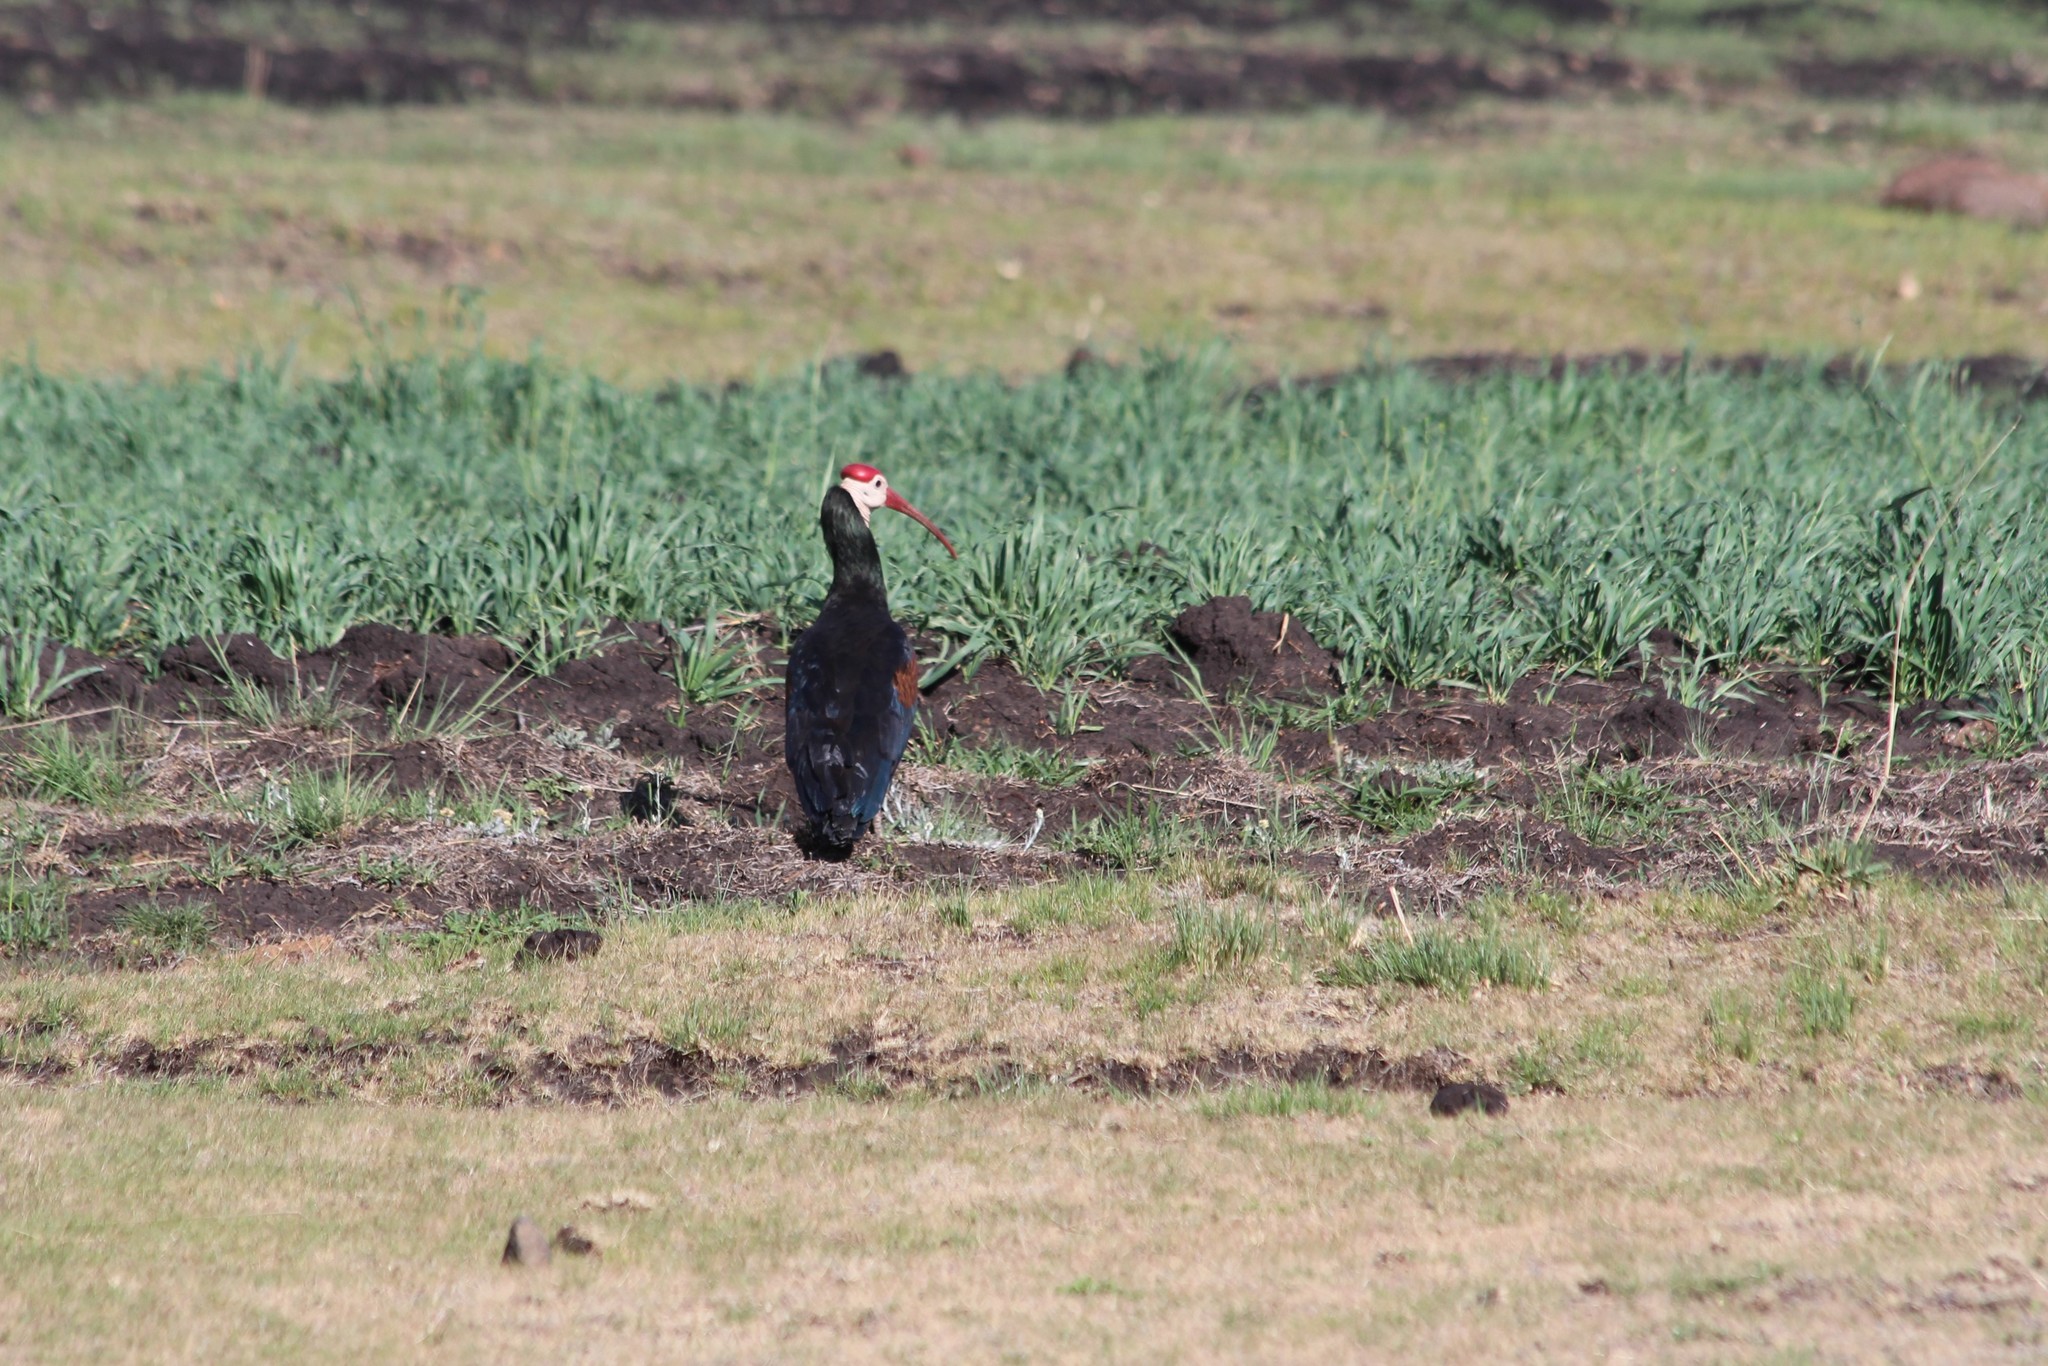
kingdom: Animalia
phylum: Chordata
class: Aves
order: Pelecaniformes
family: Threskiornithidae
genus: Geronticus
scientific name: Geronticus calvus
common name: Southern bald ibis
